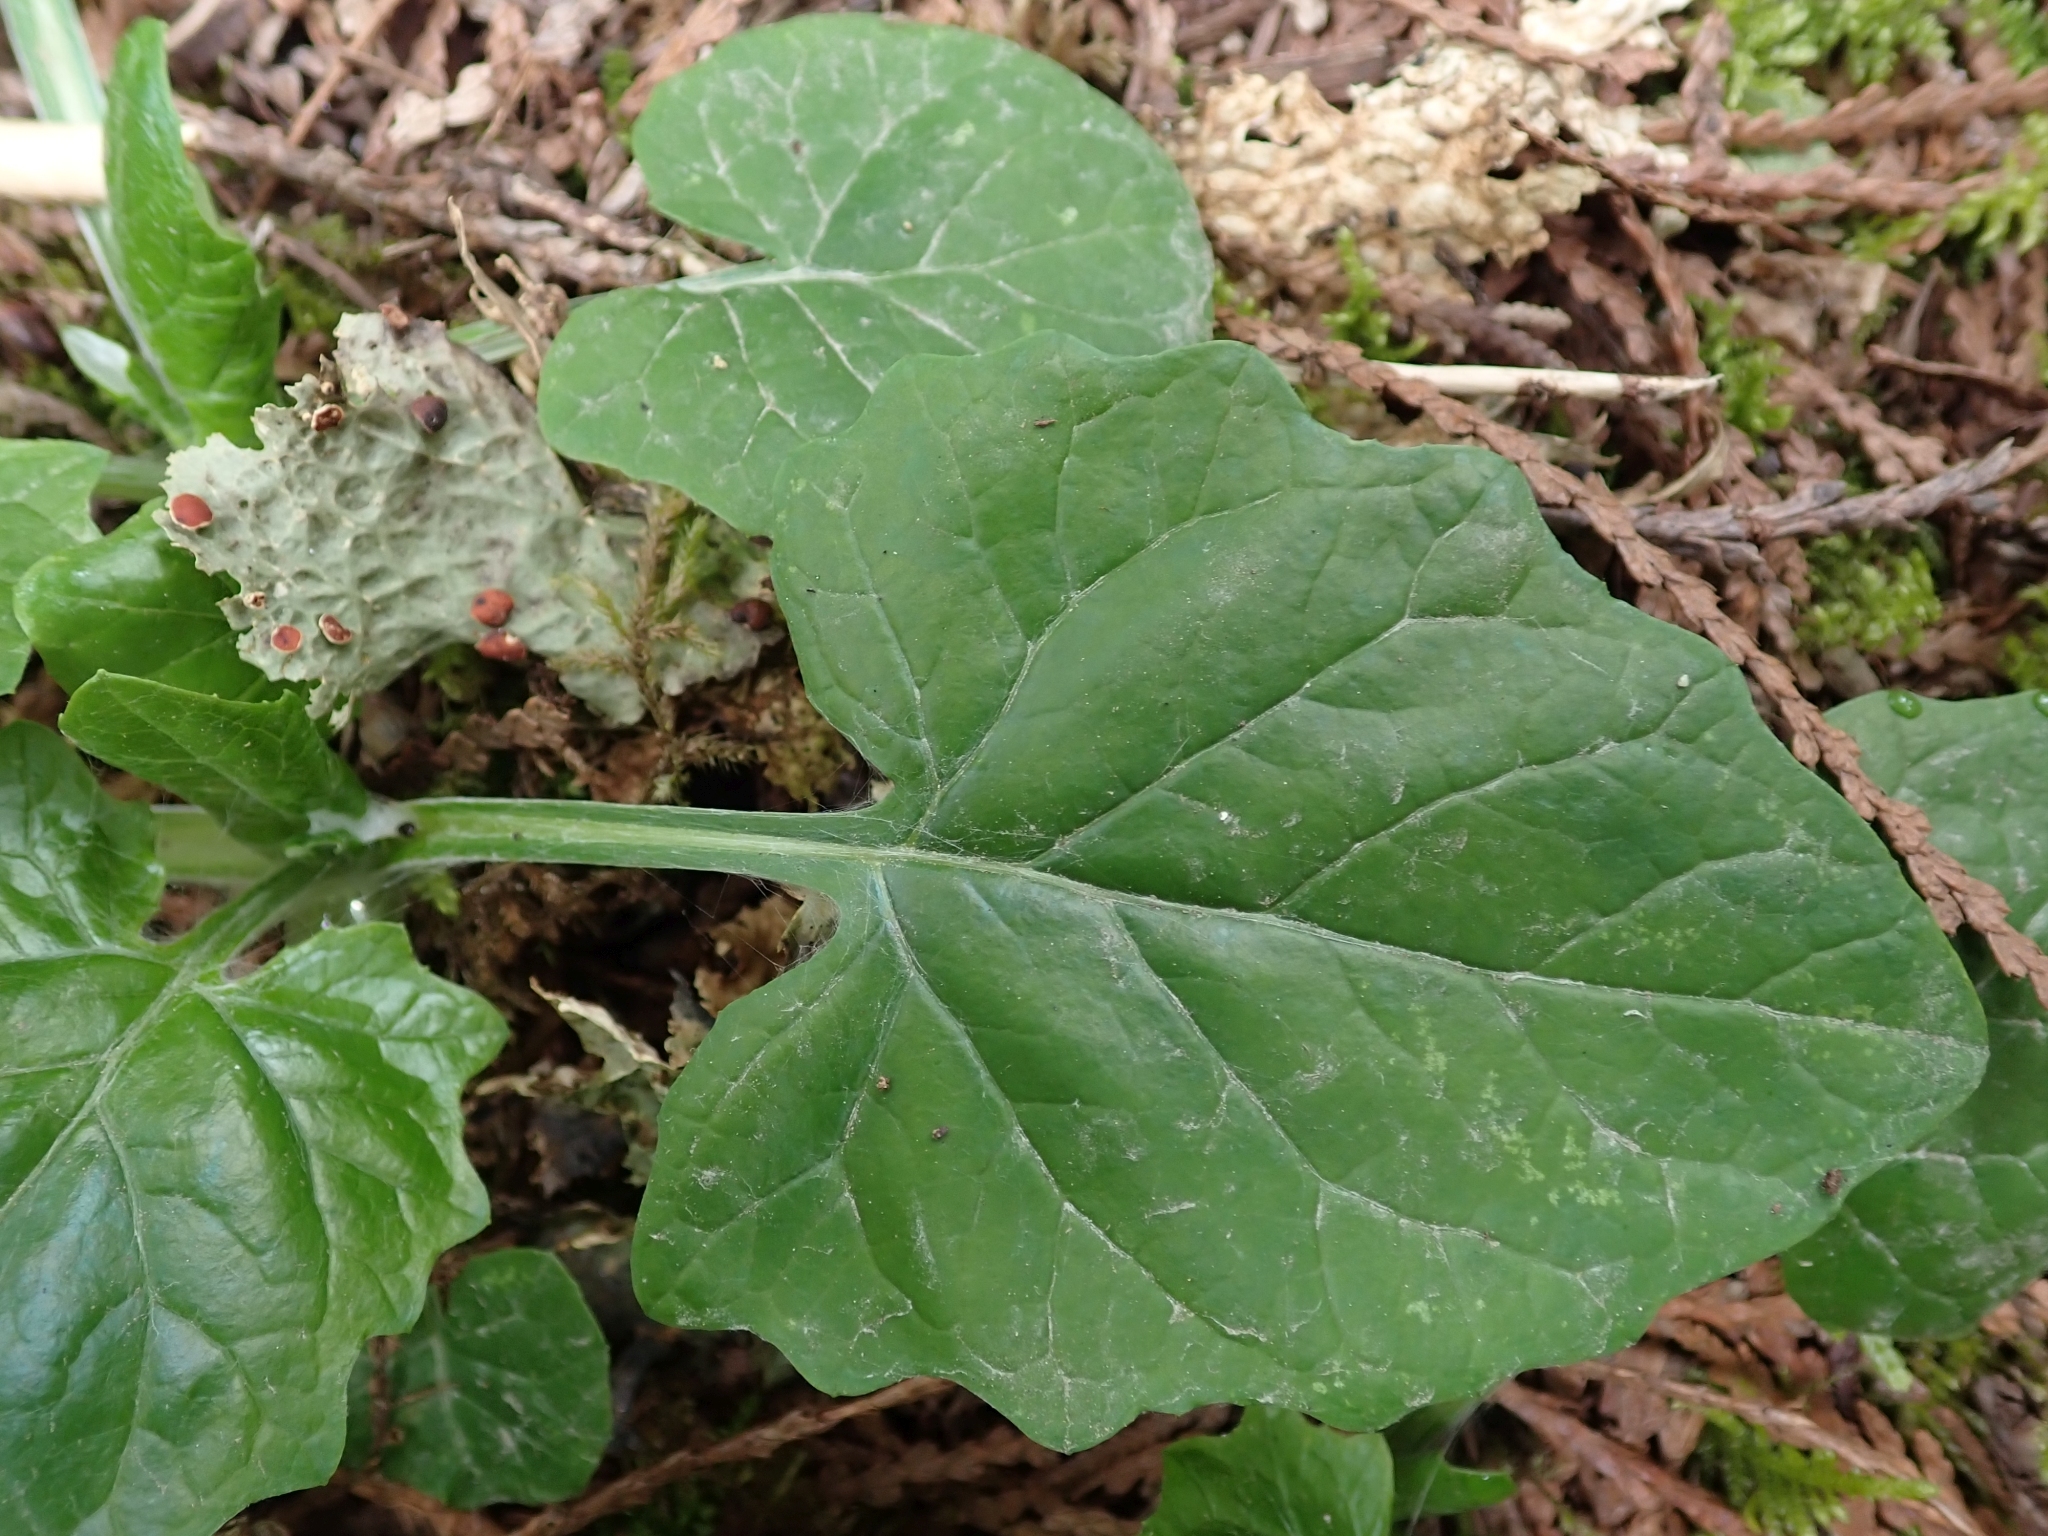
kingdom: Plantae
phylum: Tracheophyta
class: Magnoliopsida
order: Asterales
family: Asteraceae
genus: Adenocaulon
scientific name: Adenocaulon bicolor
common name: Trailplant
